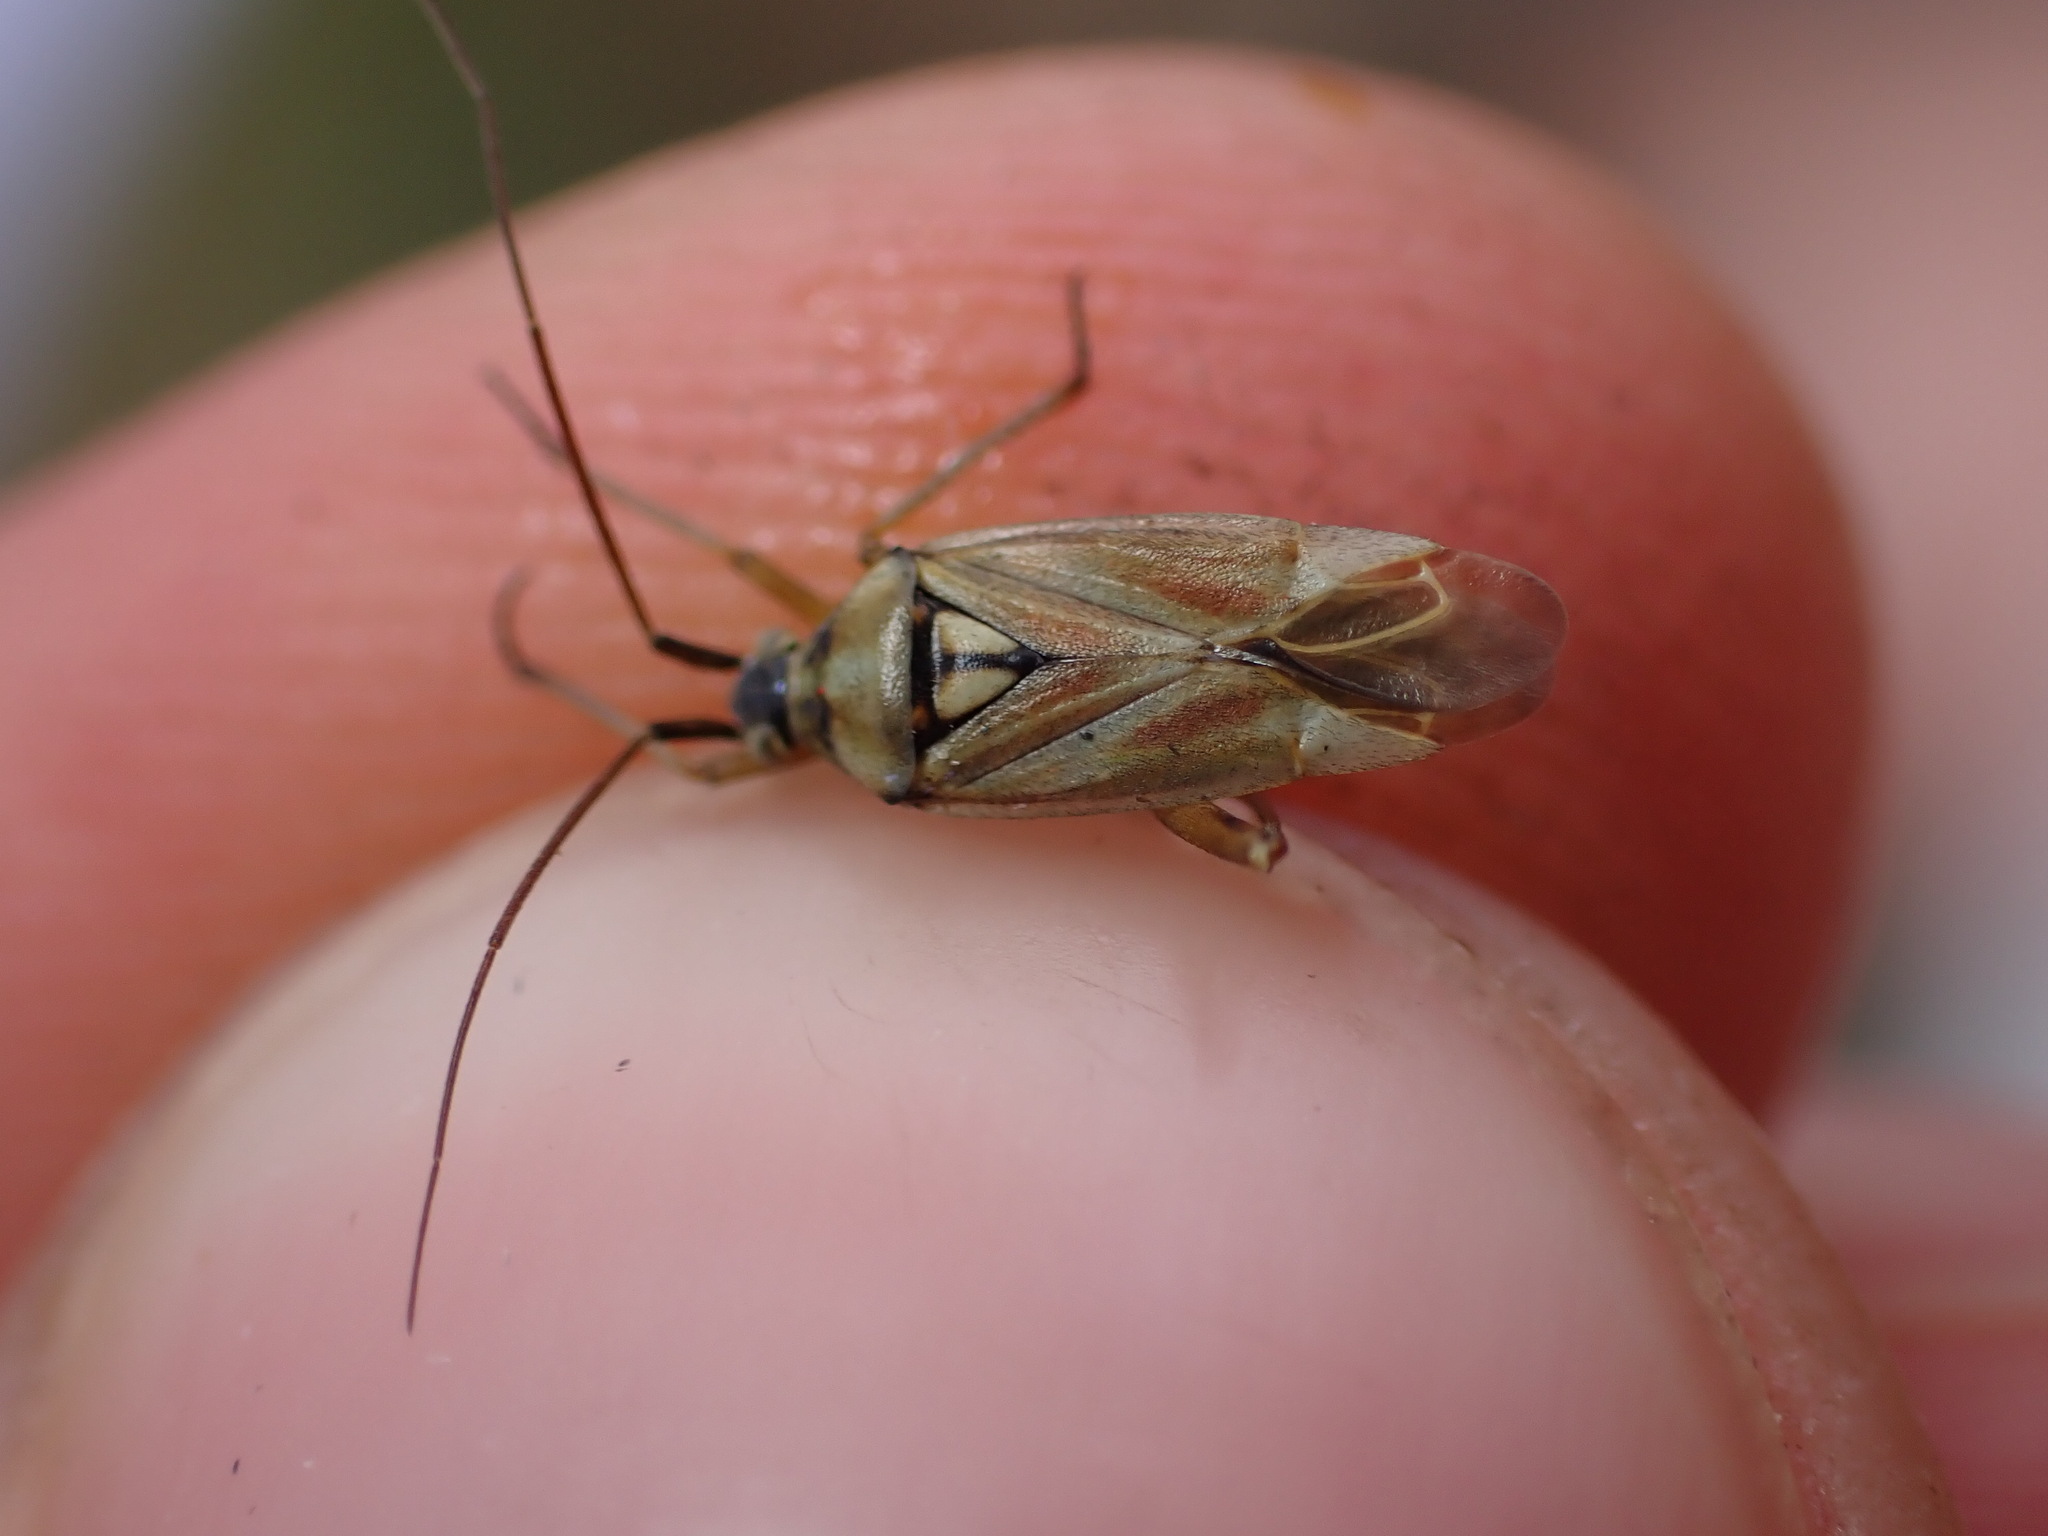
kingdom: Animalia
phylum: Arthropoda
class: Insecta
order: Hemiptera
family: Miridae
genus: Calocoris
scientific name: Calocoris roseomaculatus
